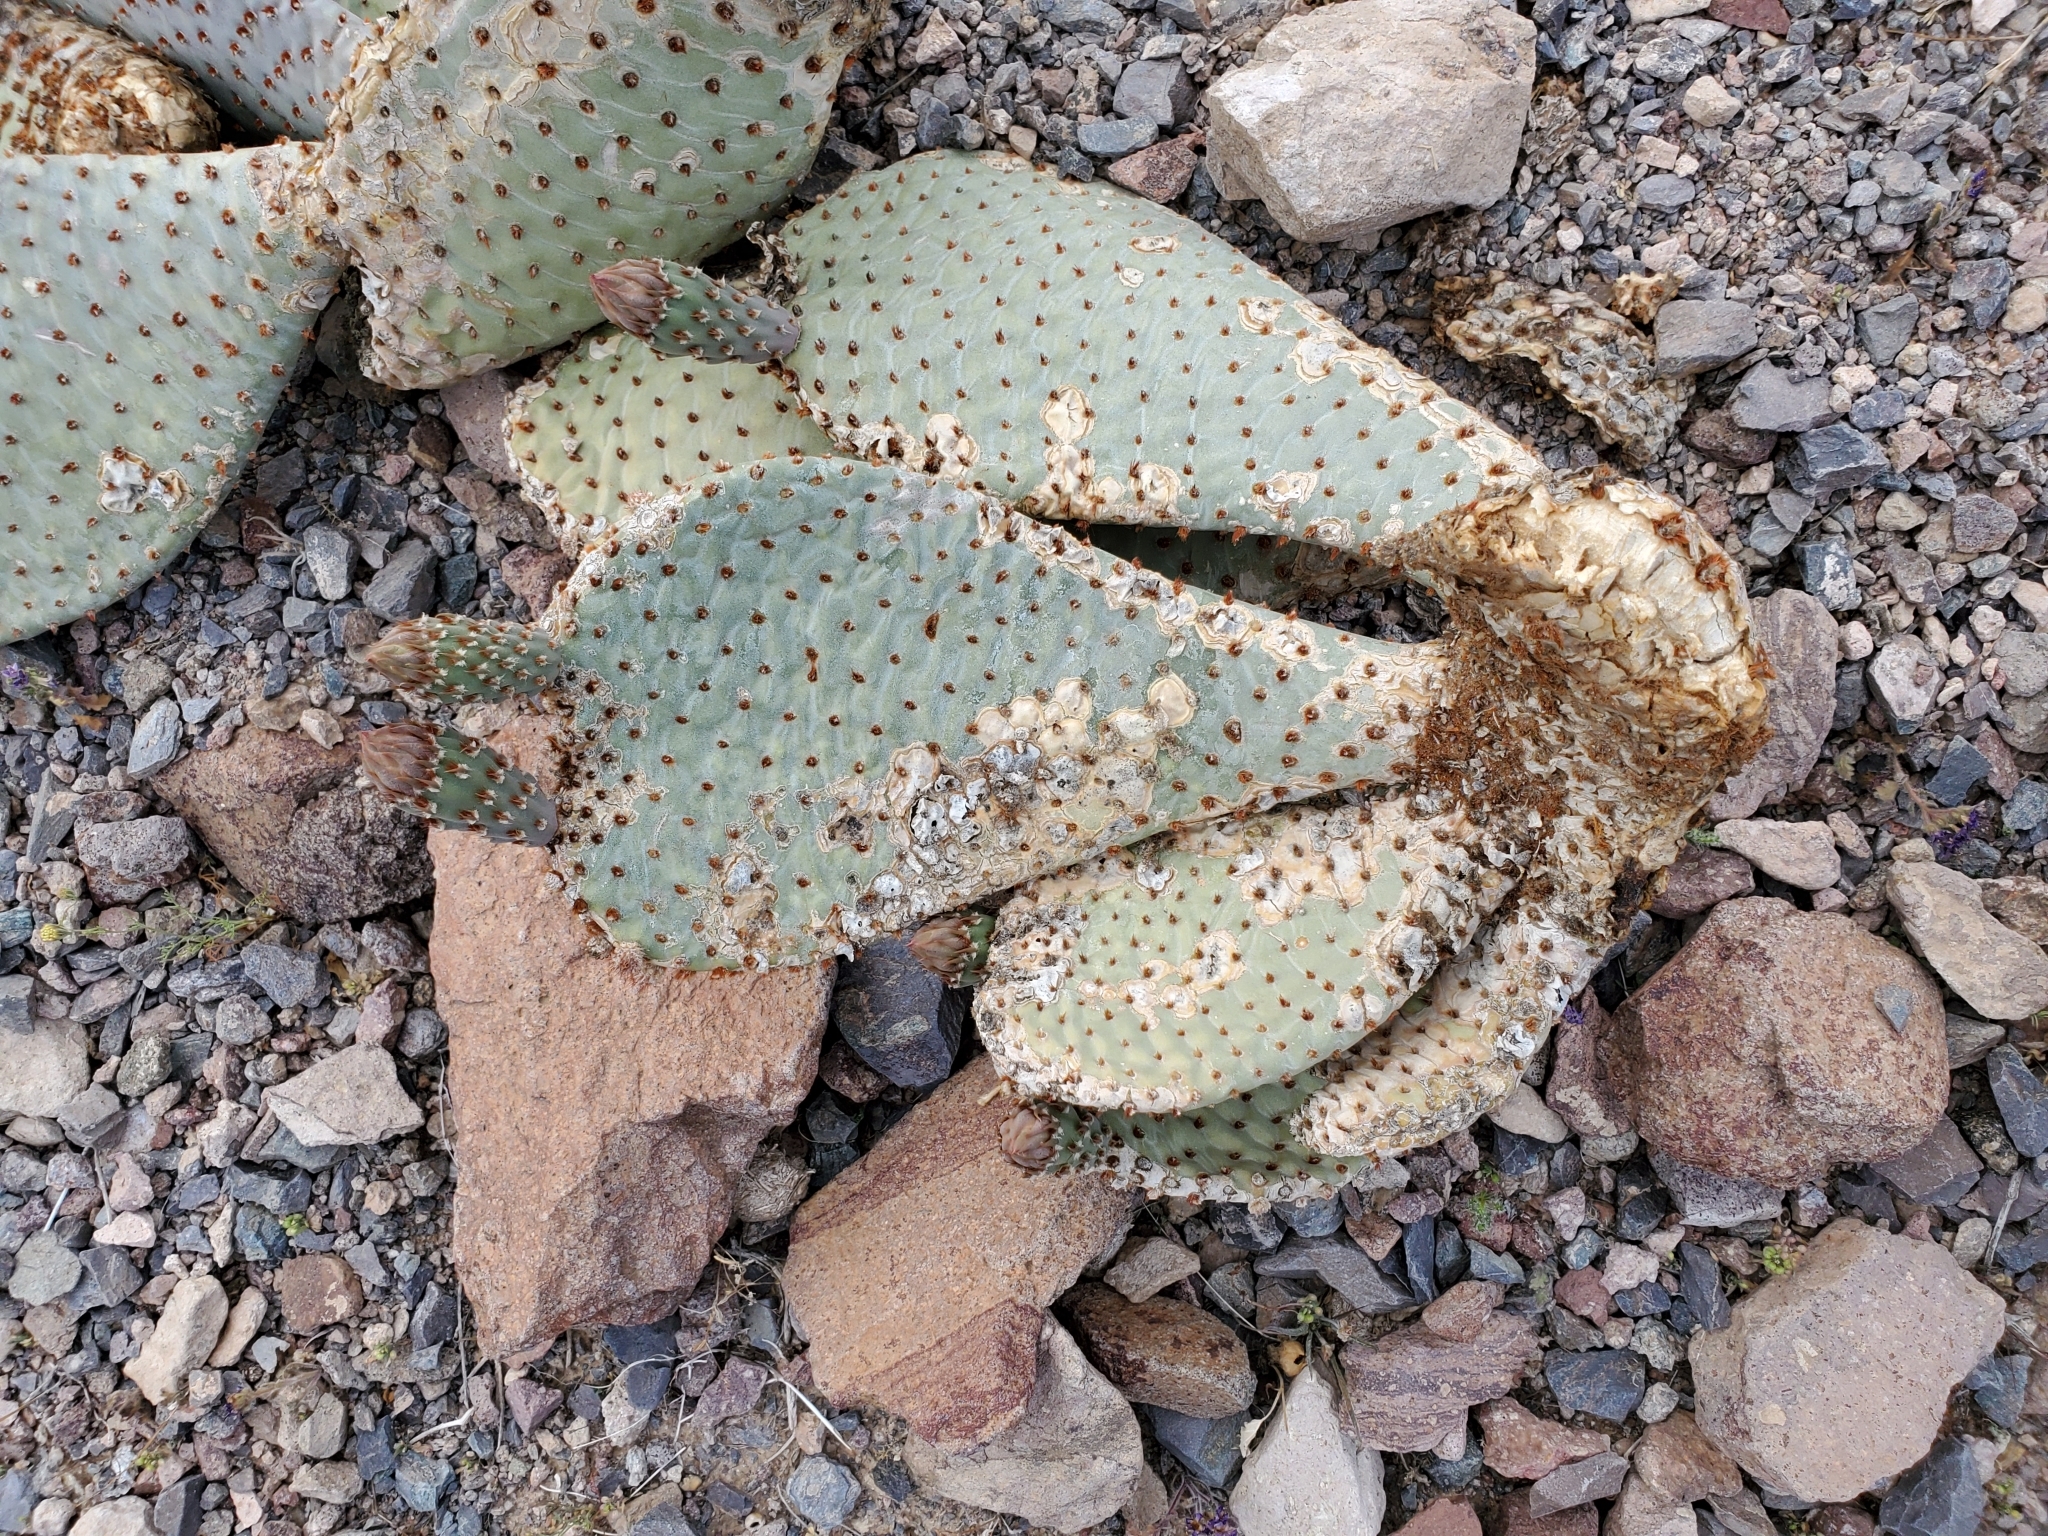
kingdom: Plantae
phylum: Tracheophyta
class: Magnoliopsida
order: Caryophyllales
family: Cactaceae
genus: Opuntia
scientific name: Opuntia basilaris
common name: Beavertail prickly-pear
